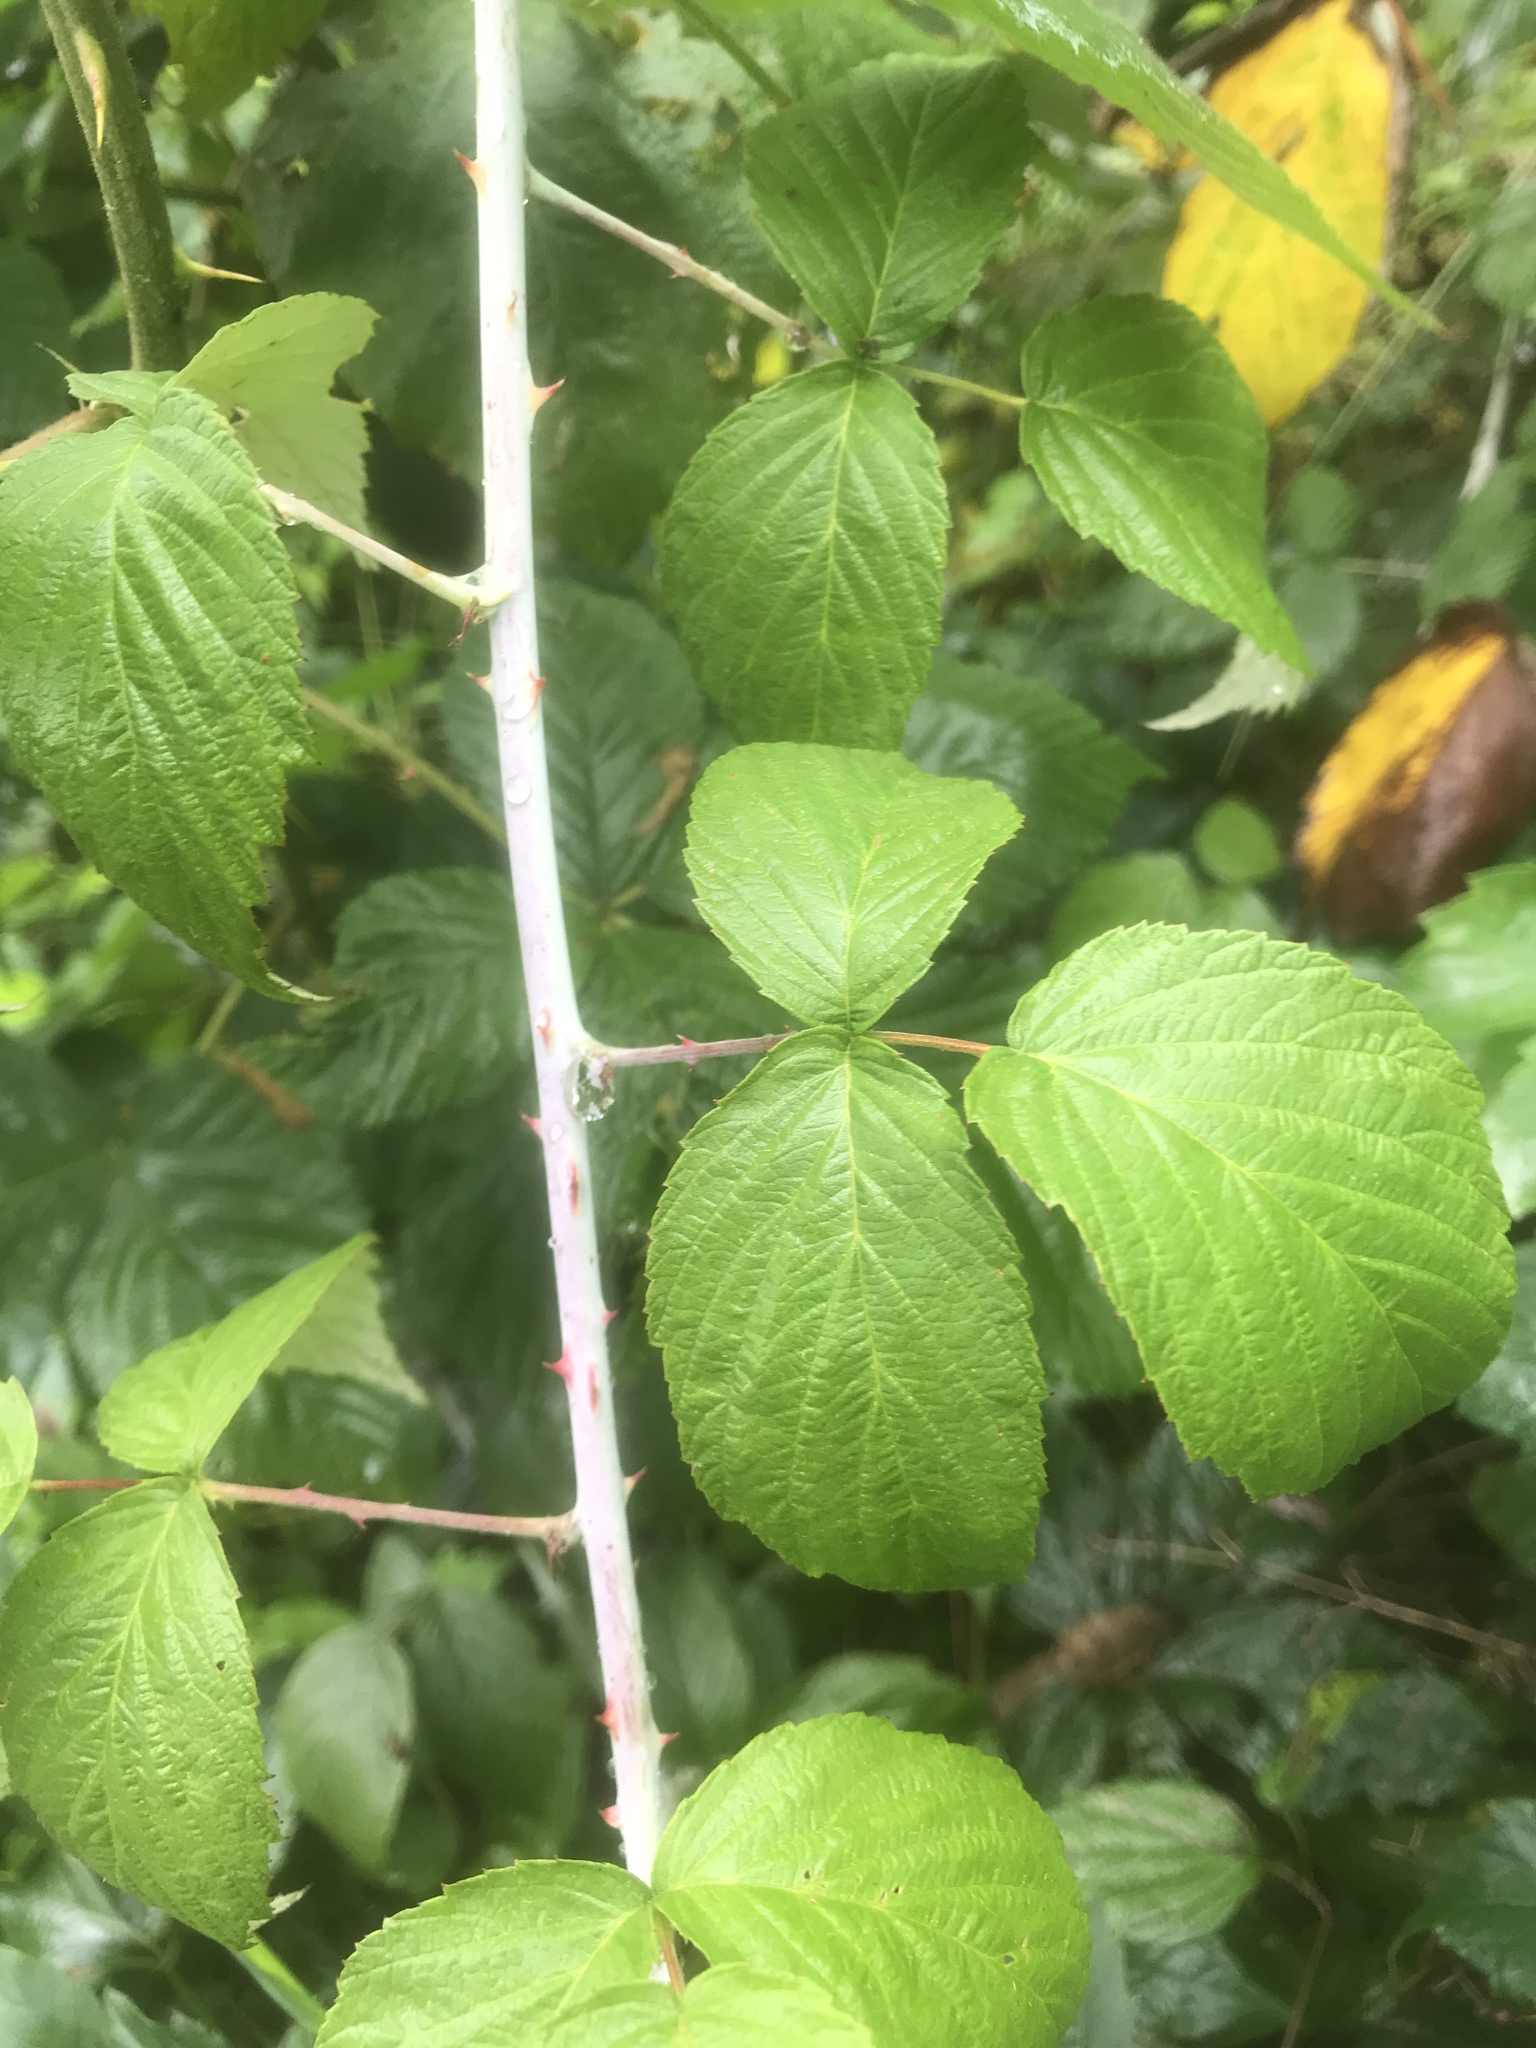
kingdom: Plantae
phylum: Tracheophyta
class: Magnoliopsida
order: Rosales
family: Rosaceae
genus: Rubus
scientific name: Rubus occidentalis
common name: Black raspberry
